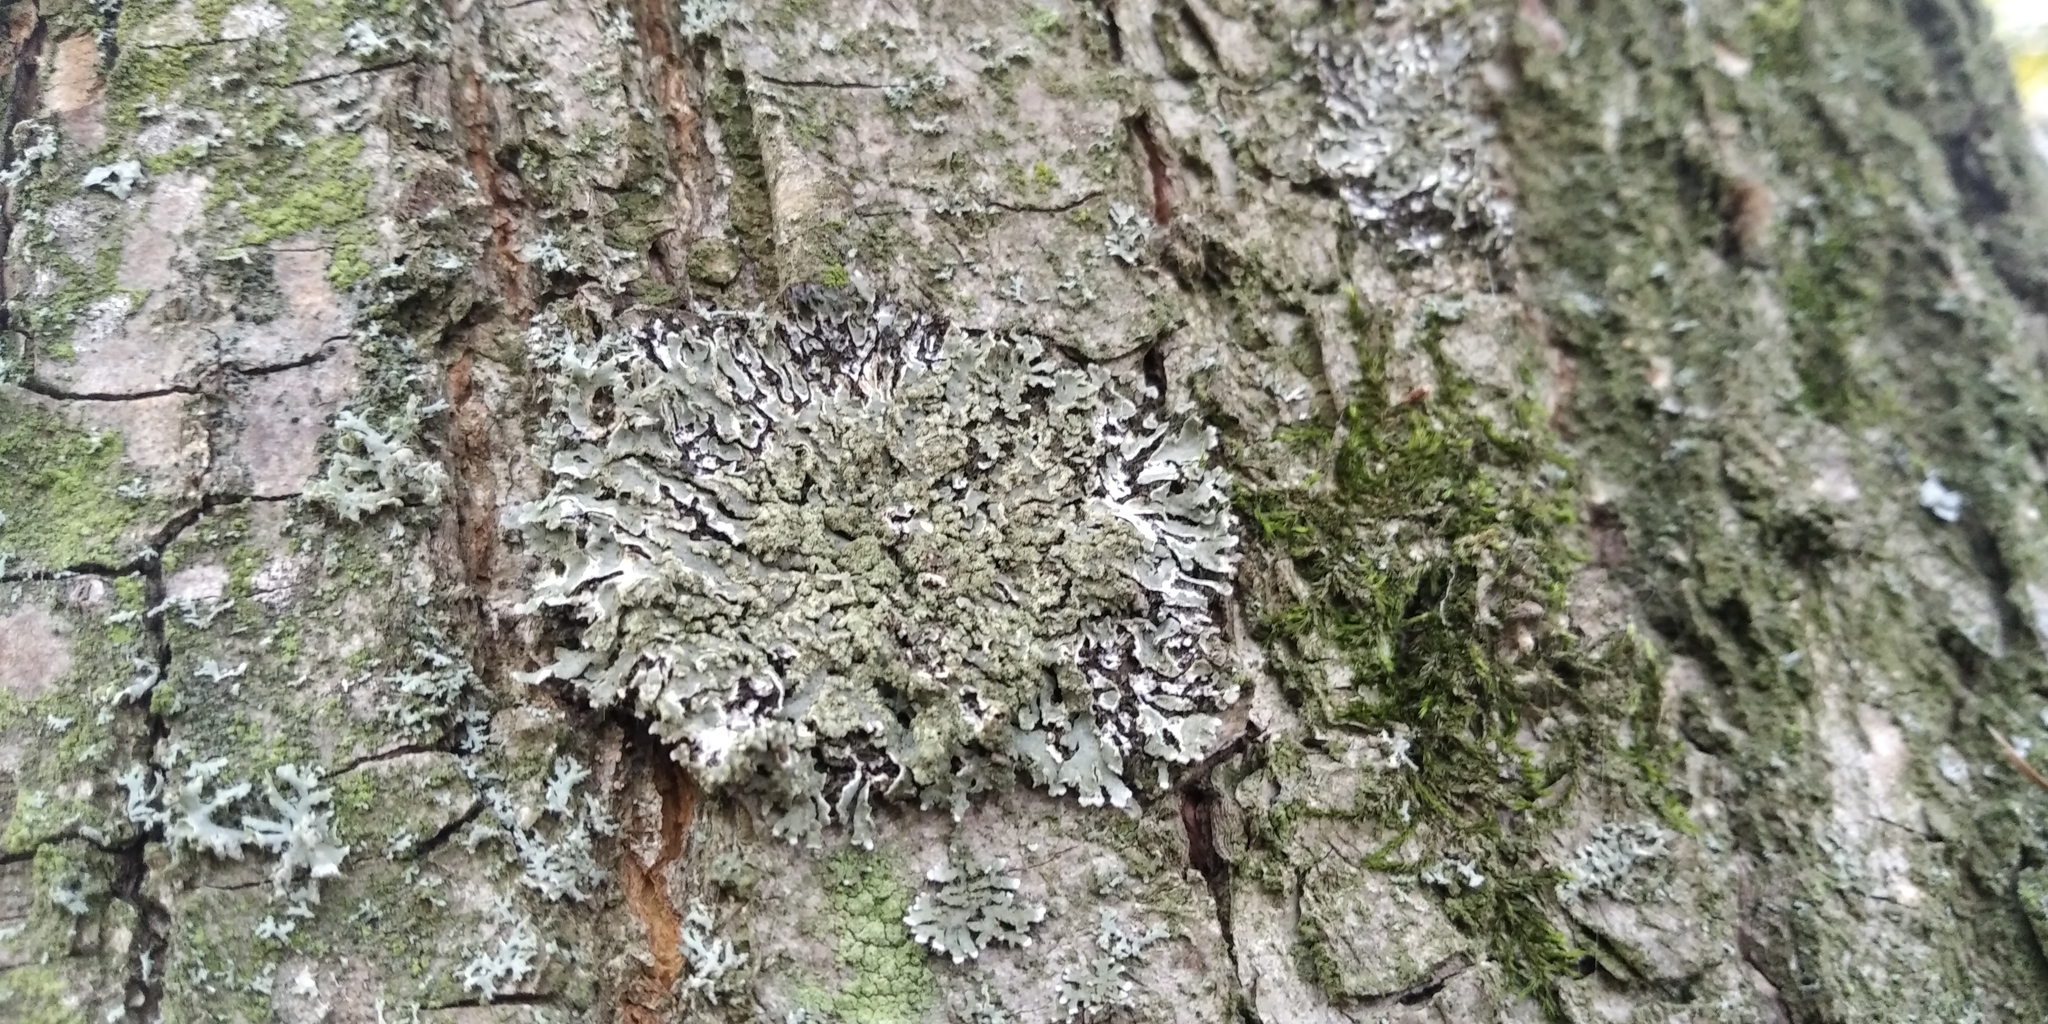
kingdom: Fungi
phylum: Ascomycota
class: Lecanoromycetes
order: Caliciales
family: Physciaceae
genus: Physconia
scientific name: Physconia enteroxantha
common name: Yellow-edged frost lichen
